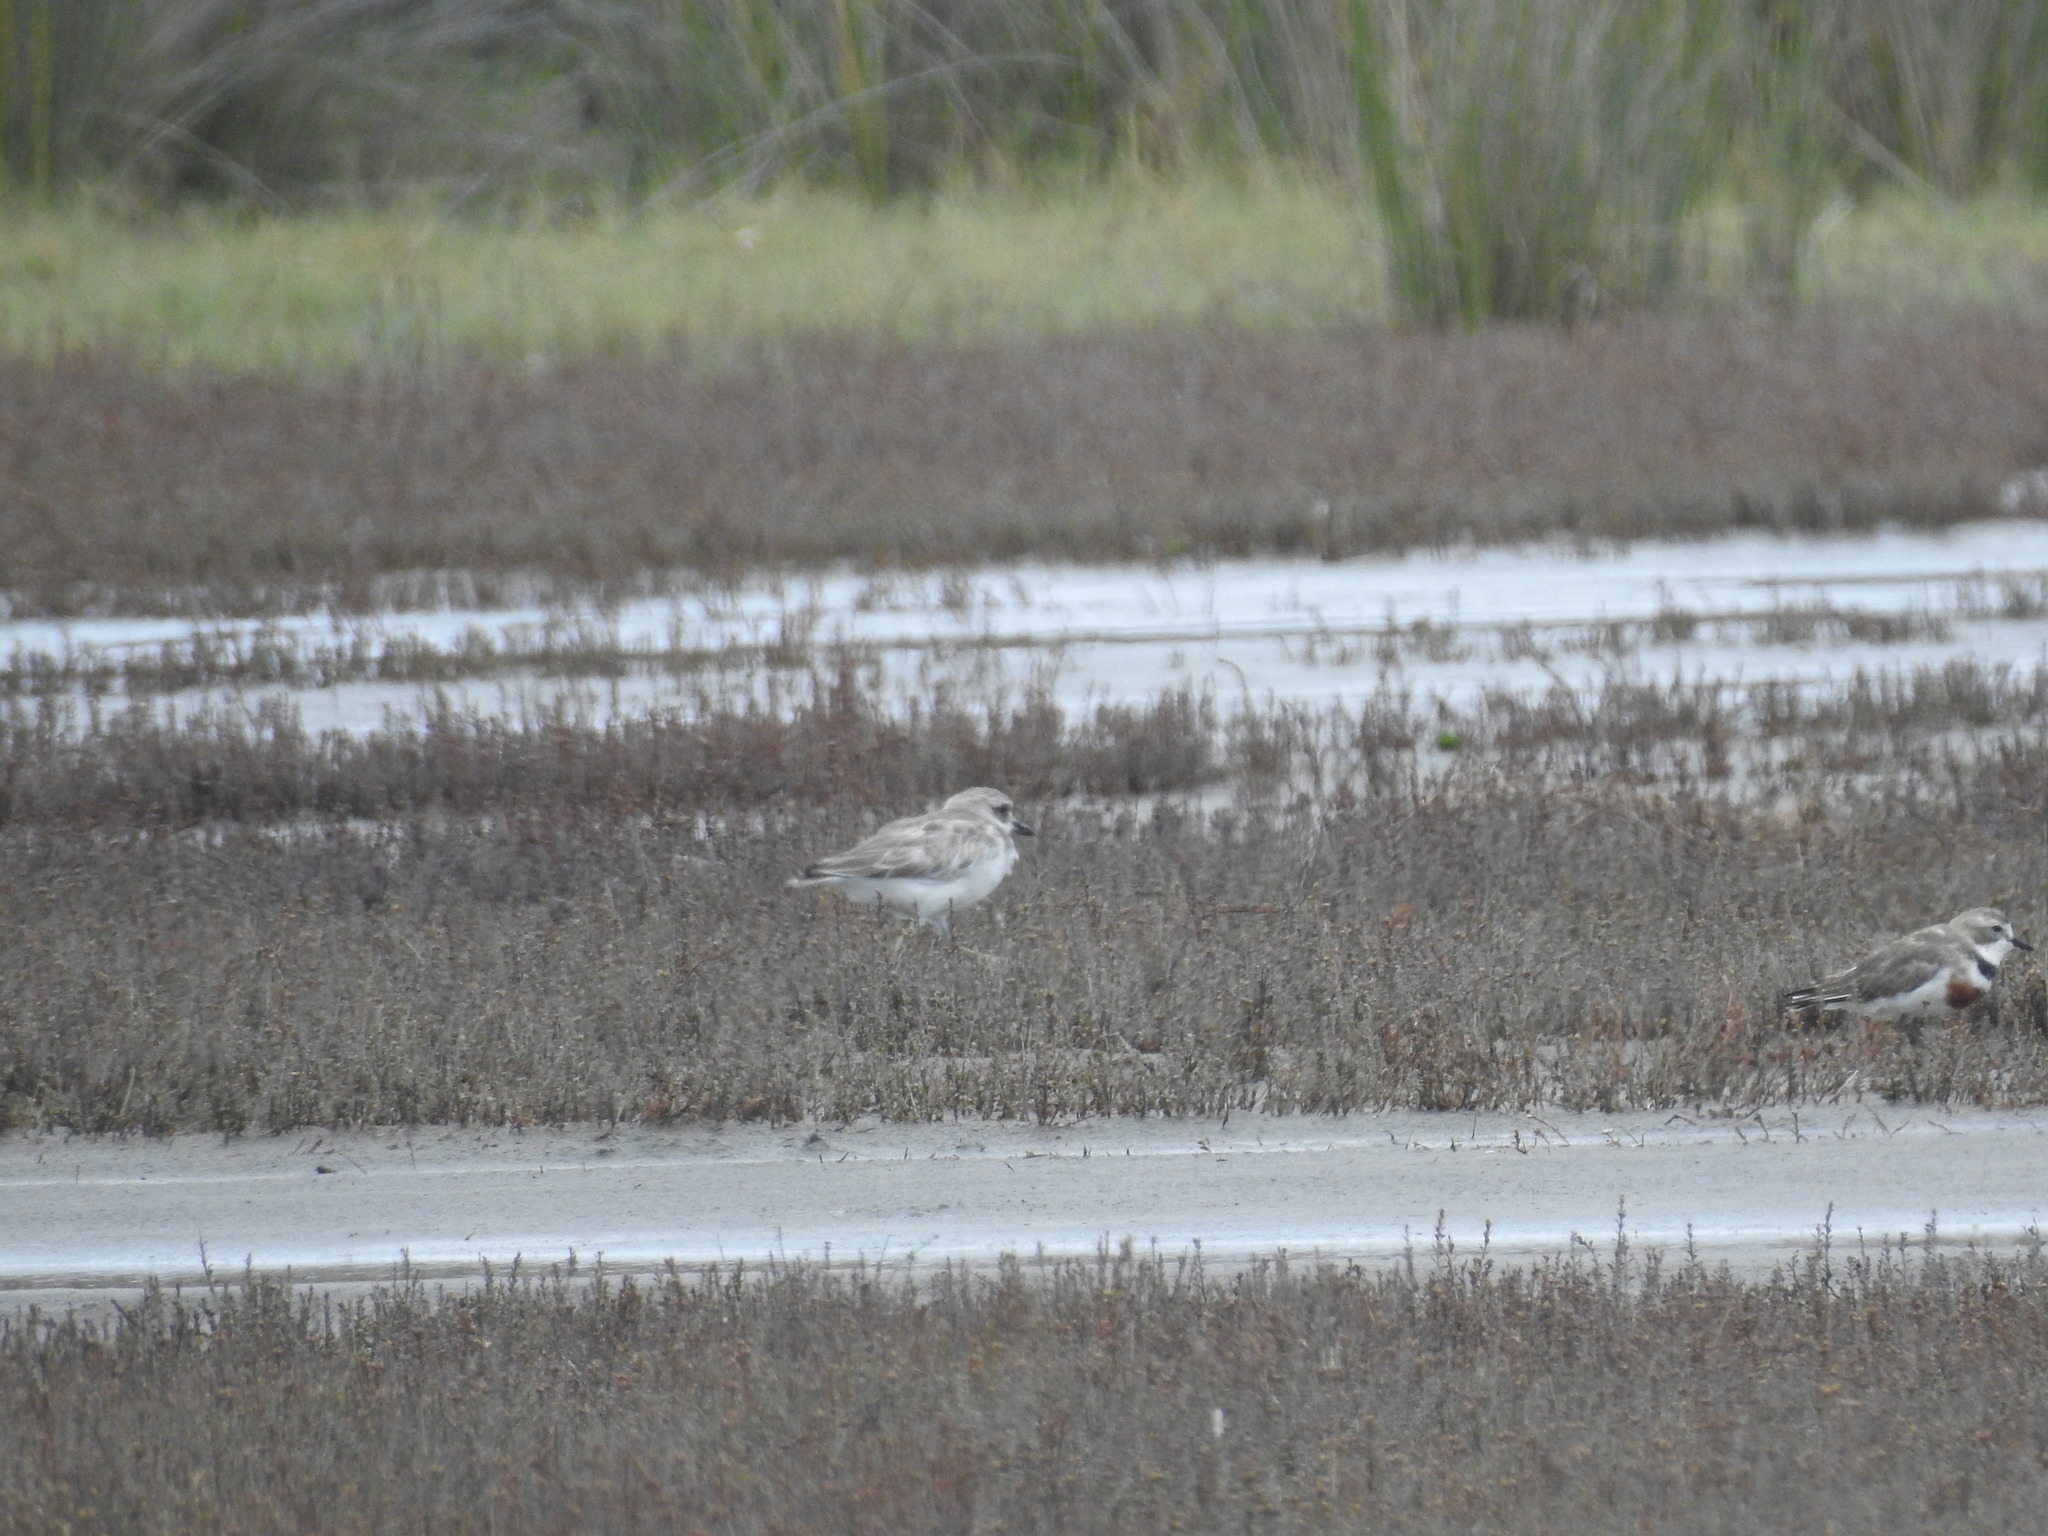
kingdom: Animalia
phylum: Chordata
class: Aves
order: Charadriiformes
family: Charadriidae
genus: Charadrius
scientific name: Charadrius leschenaultii
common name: Greater sand plover
